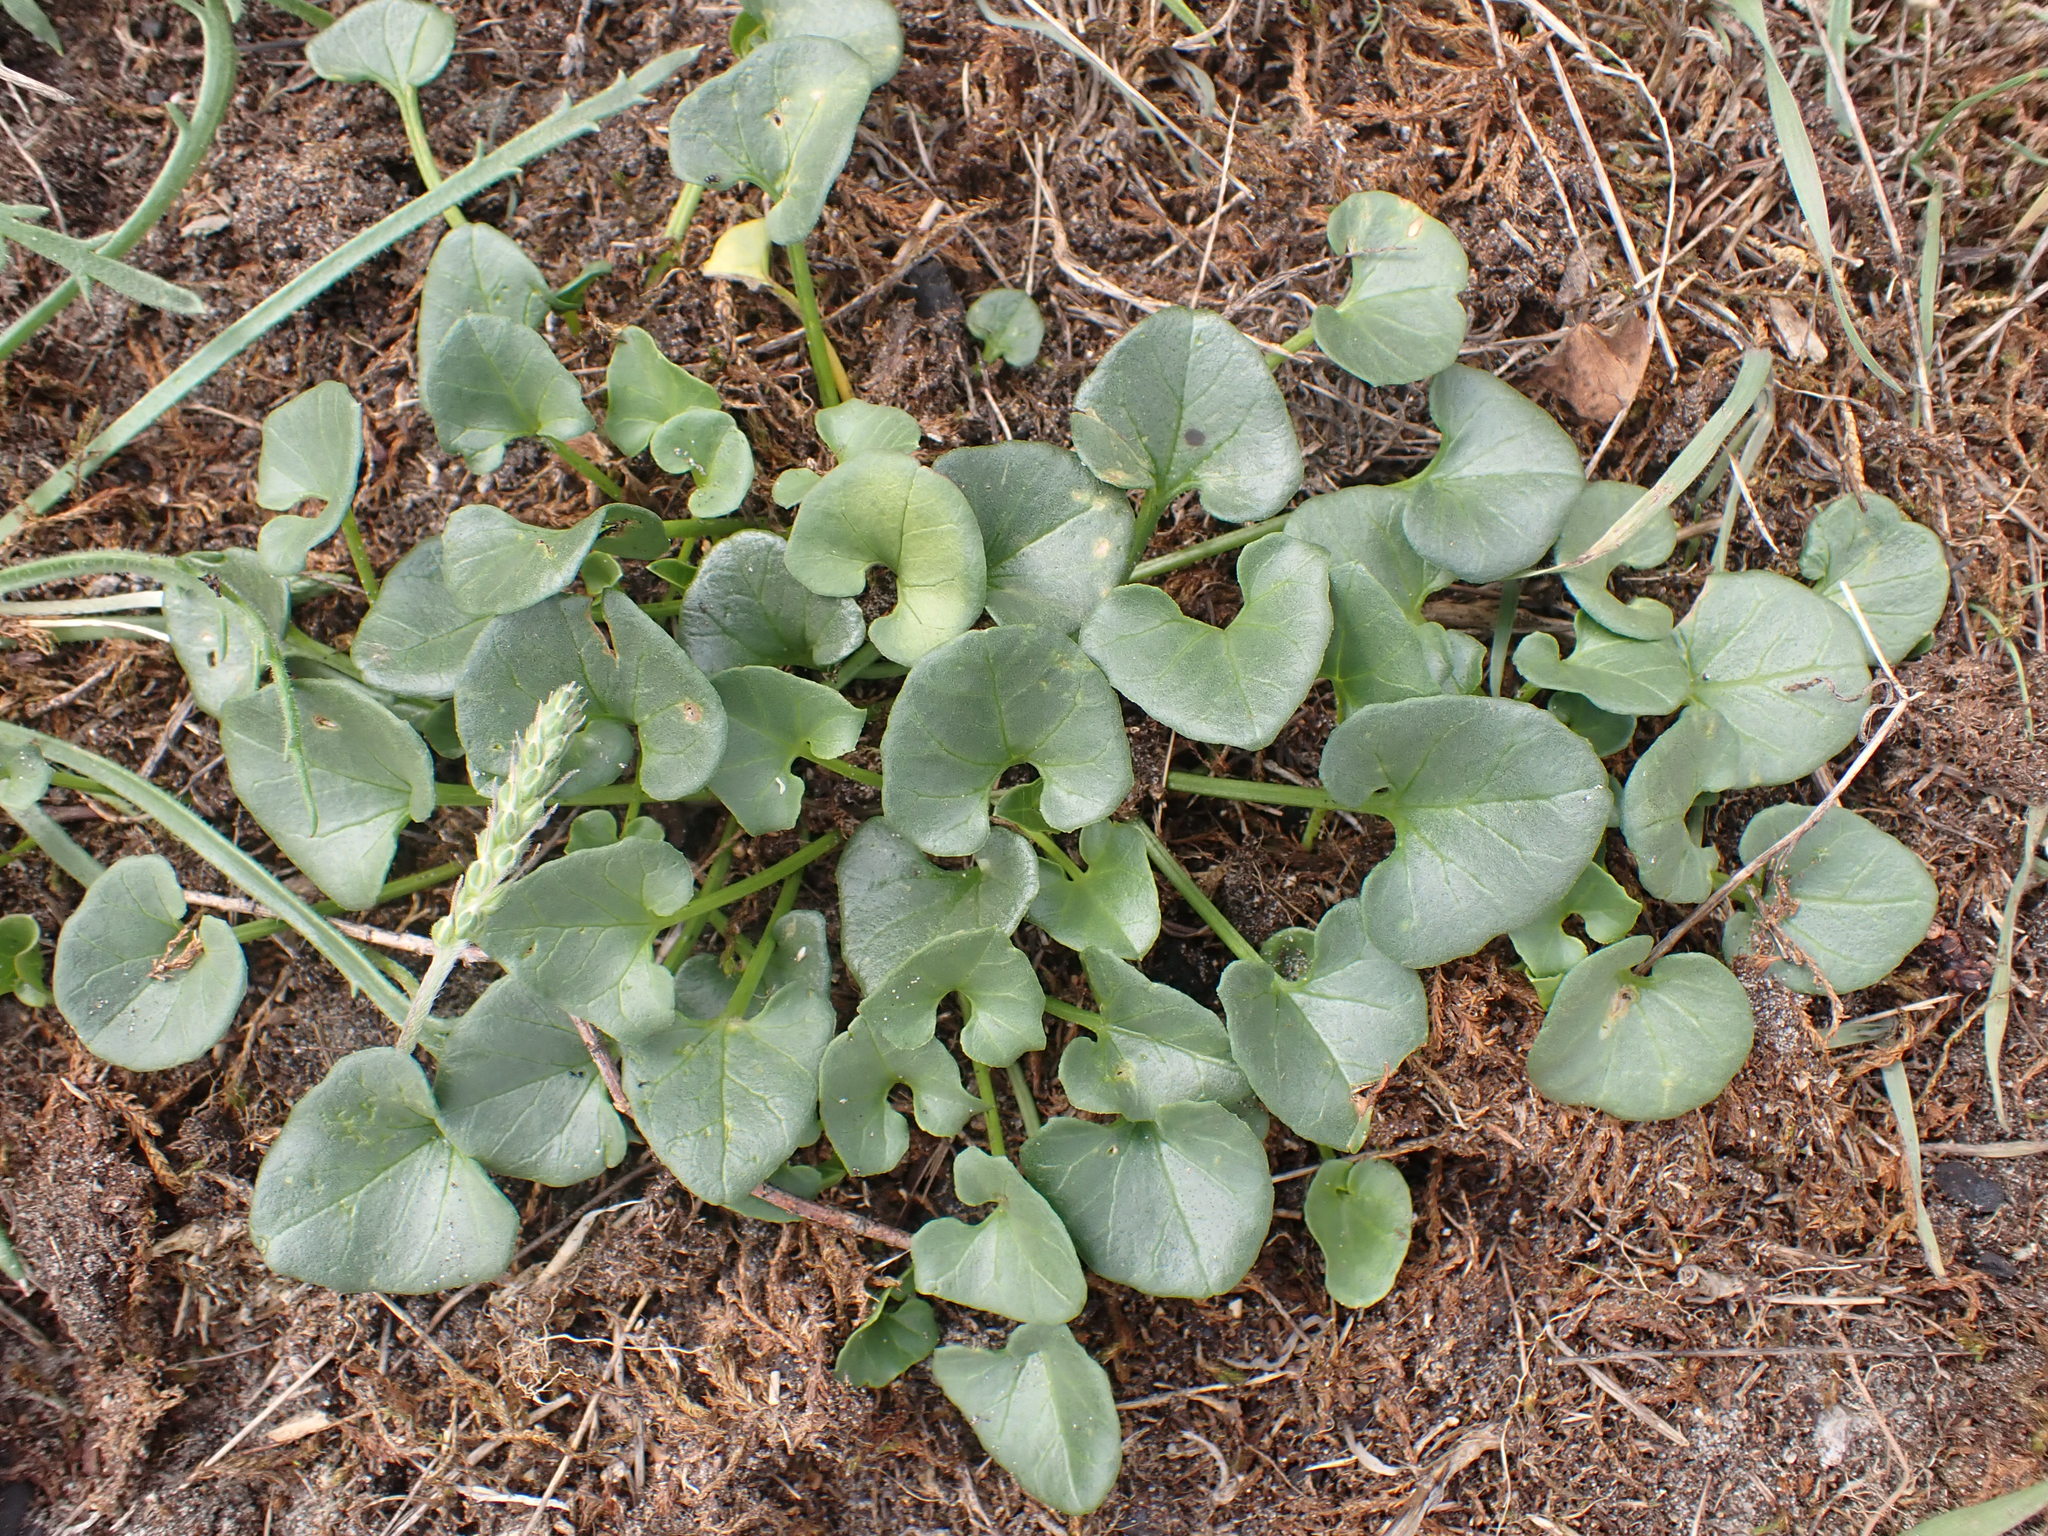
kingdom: Plantae
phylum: Tracheophyta
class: Magnoliopsida
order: Solanales
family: Convolvulaceae
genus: Calystegia
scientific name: Calystegia soldanella
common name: Sea bindweed
